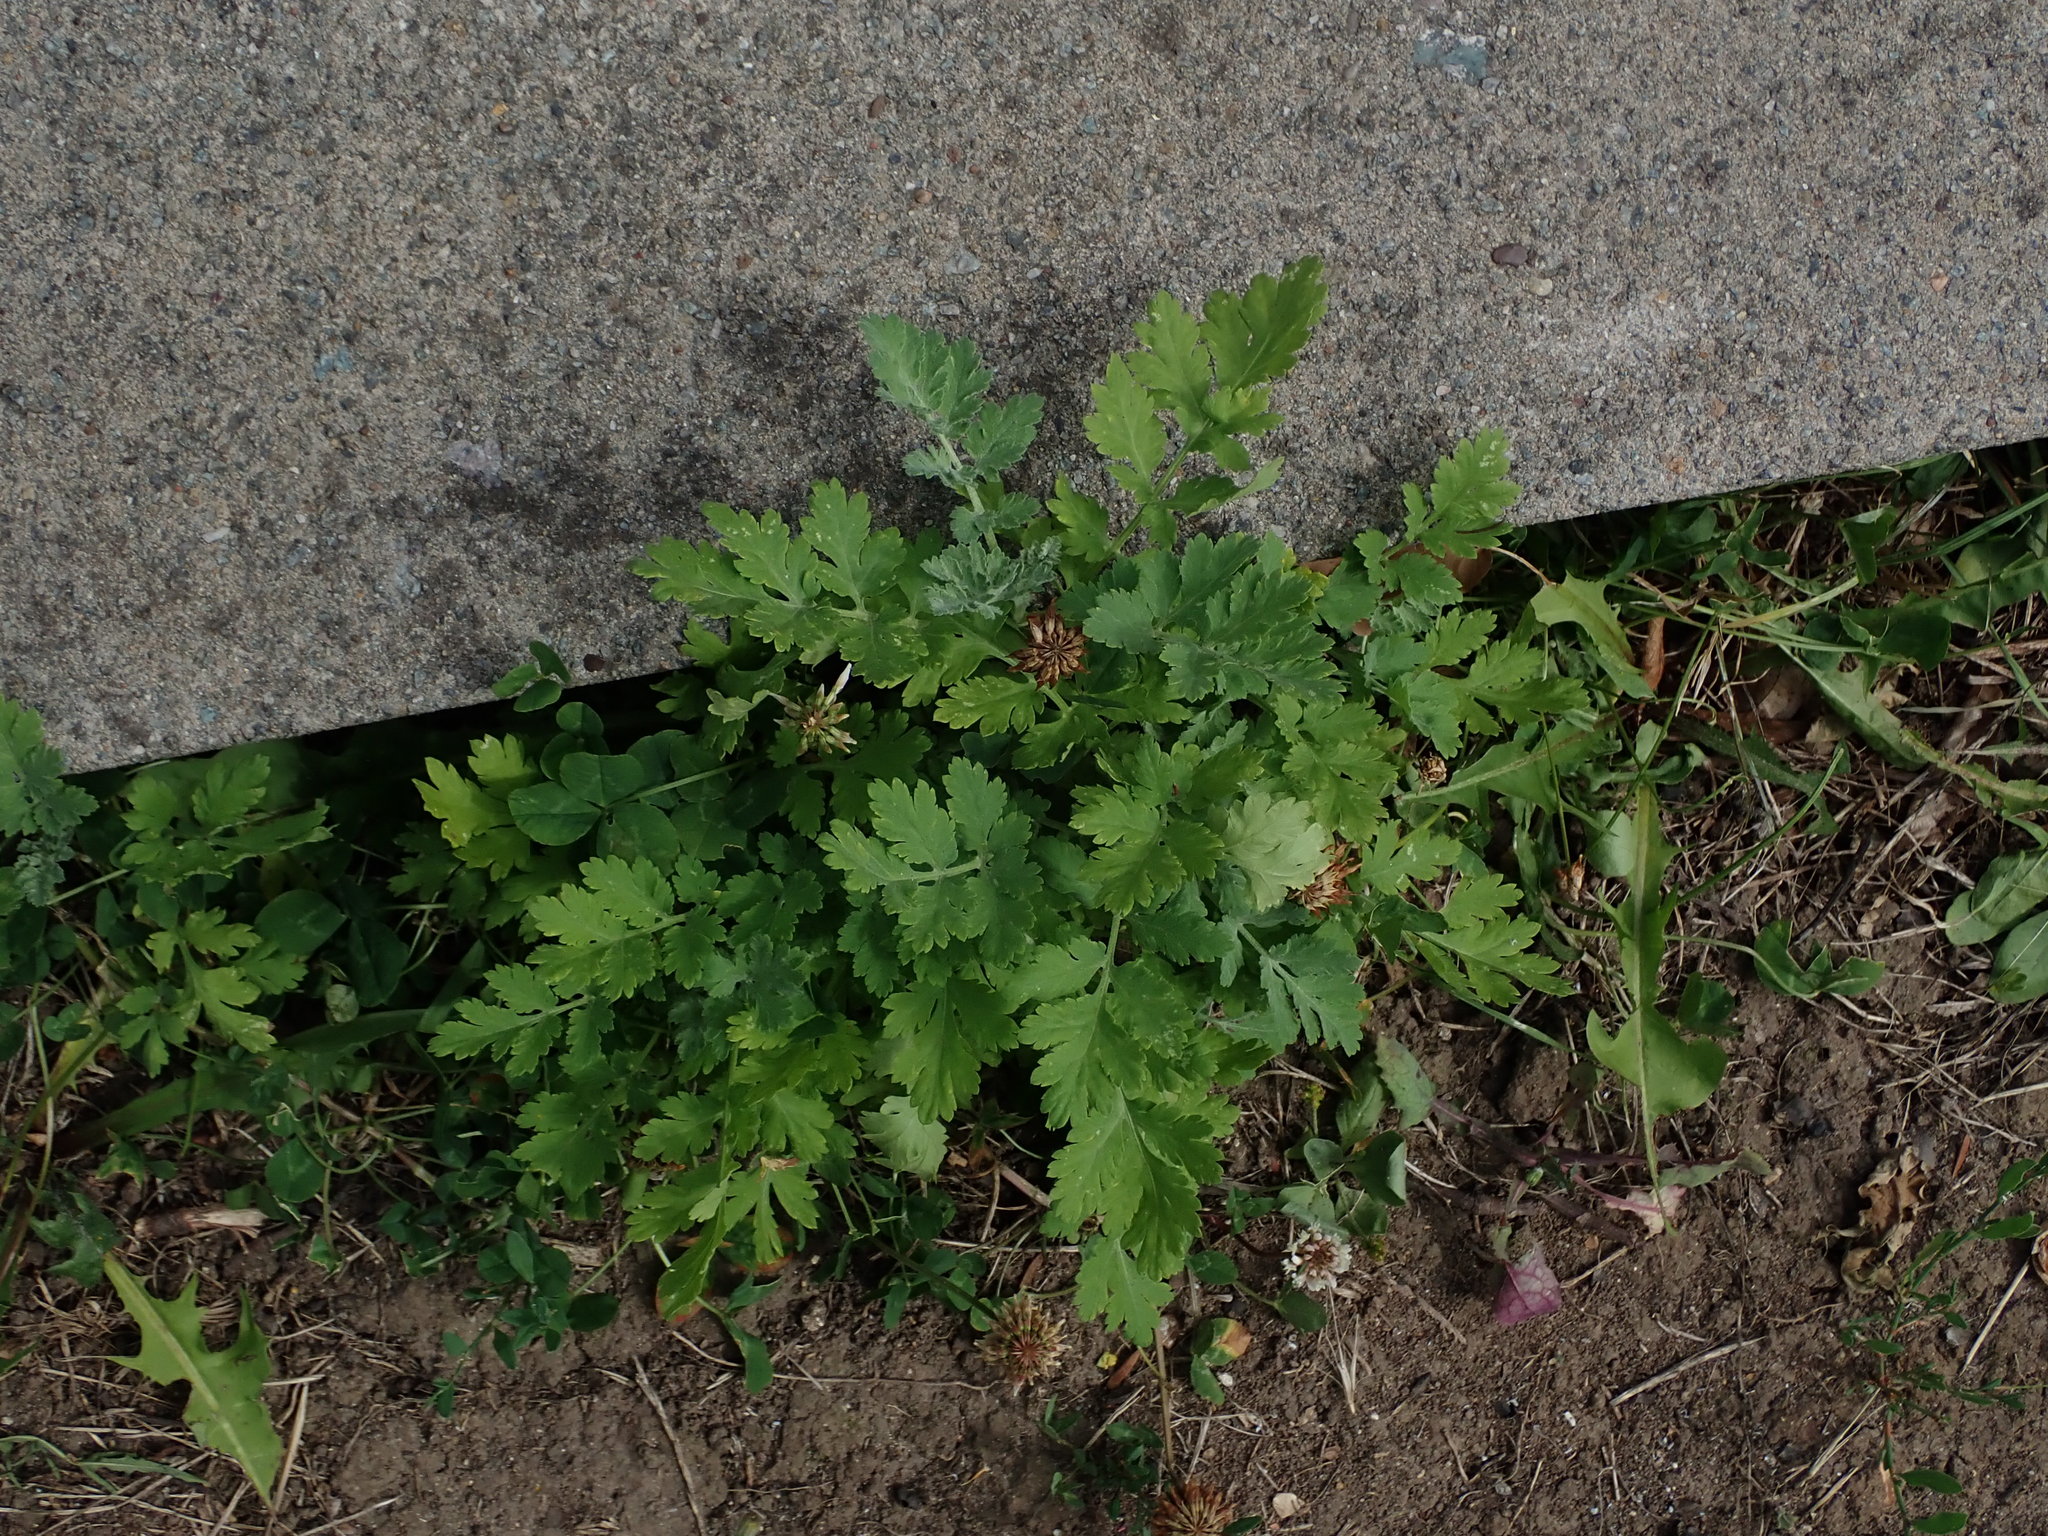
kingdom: Plantae
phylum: Tracheophyta
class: Magnoliopsida
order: Asterales
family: Asteraceae
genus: Tanacetum
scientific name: Tanacetum parthenium
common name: Feverfew
